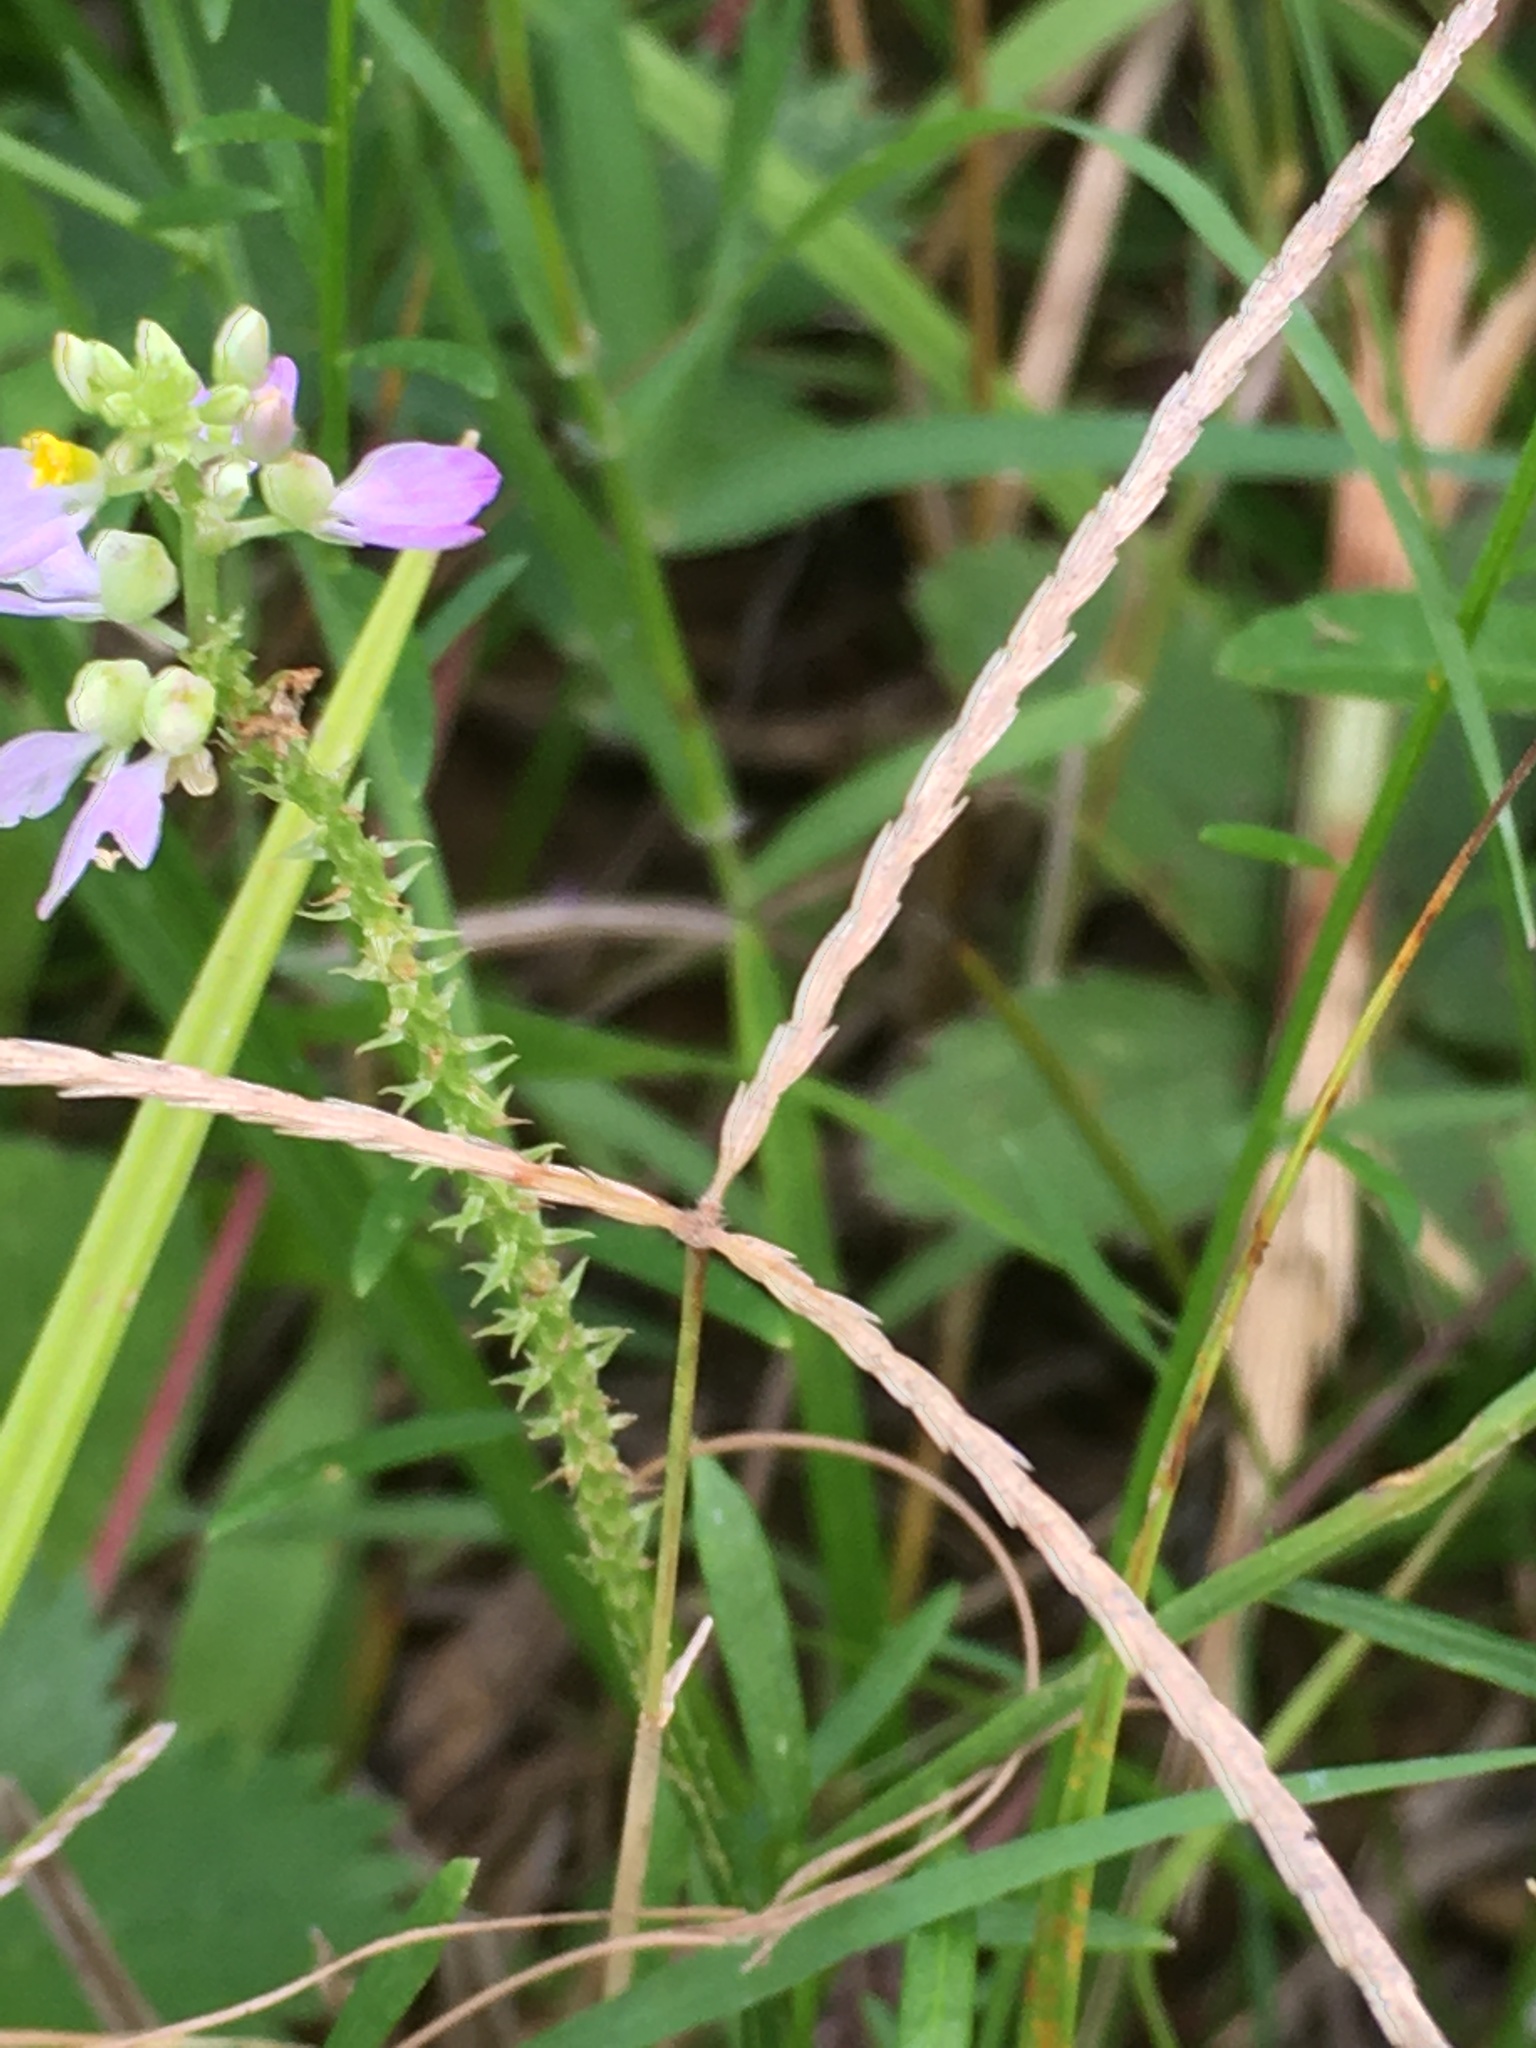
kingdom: Plantae
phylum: Tracheophyta
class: Magnoliopsida
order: Fabales
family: Polygalaceae
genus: Polygala
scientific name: Polygala curtissii
